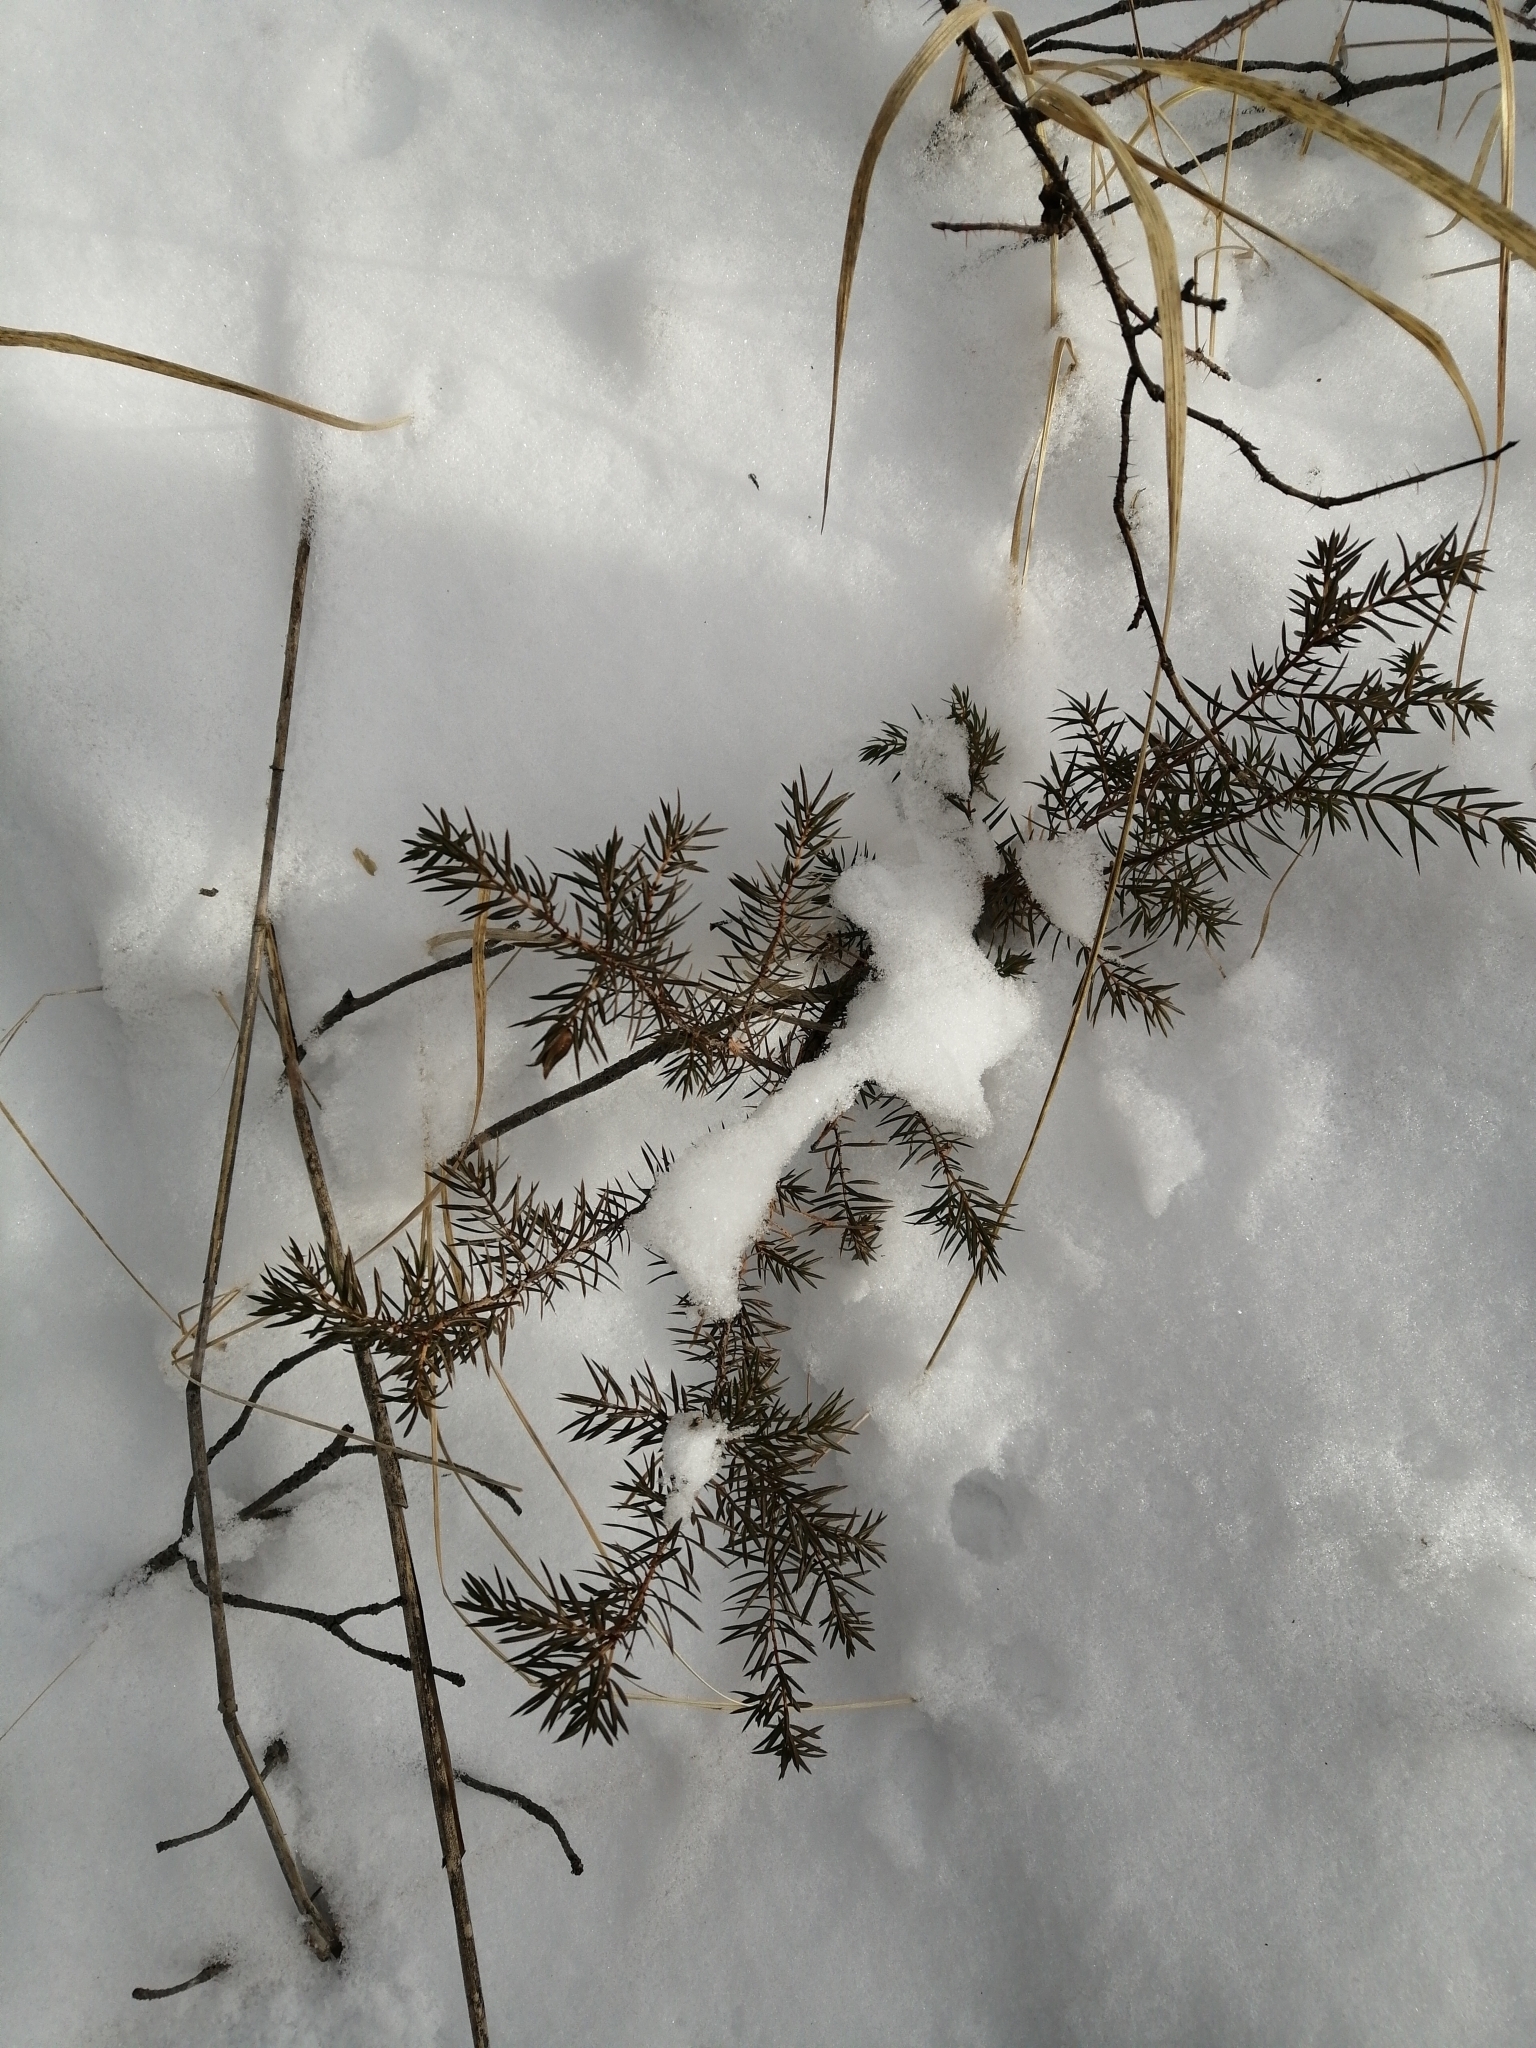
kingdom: Plantae
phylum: Tracheophyta
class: Pinopsida
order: Pinales
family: Cupressaceae
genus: Juniperus
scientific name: Juniperus communis
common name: Common juniper
